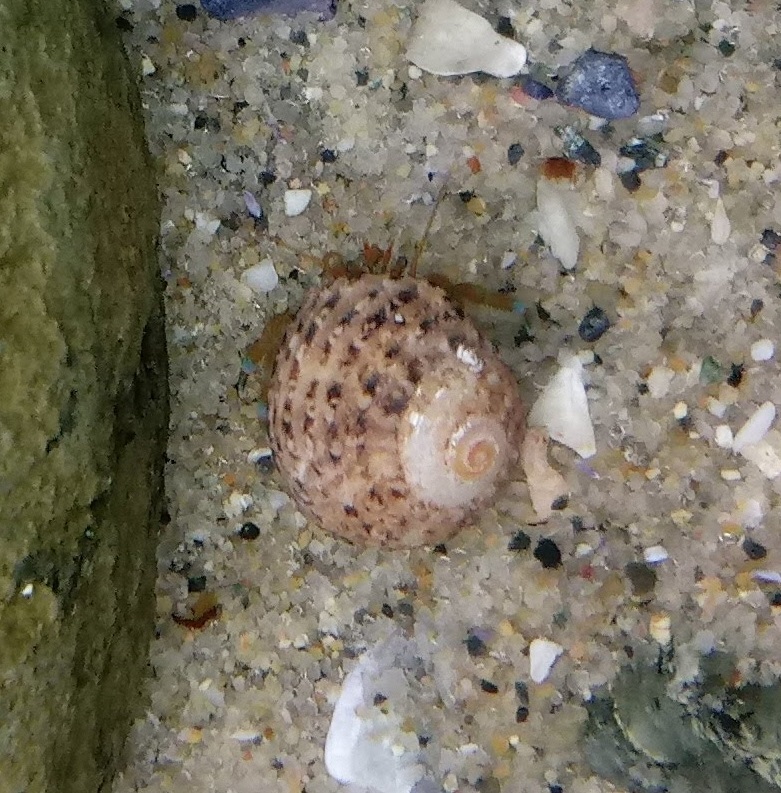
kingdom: Animalia
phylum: Arthropoda
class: Malacostraca
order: Decapoda
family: Paguridae
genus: Pagurus
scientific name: Pagurus samuelis
